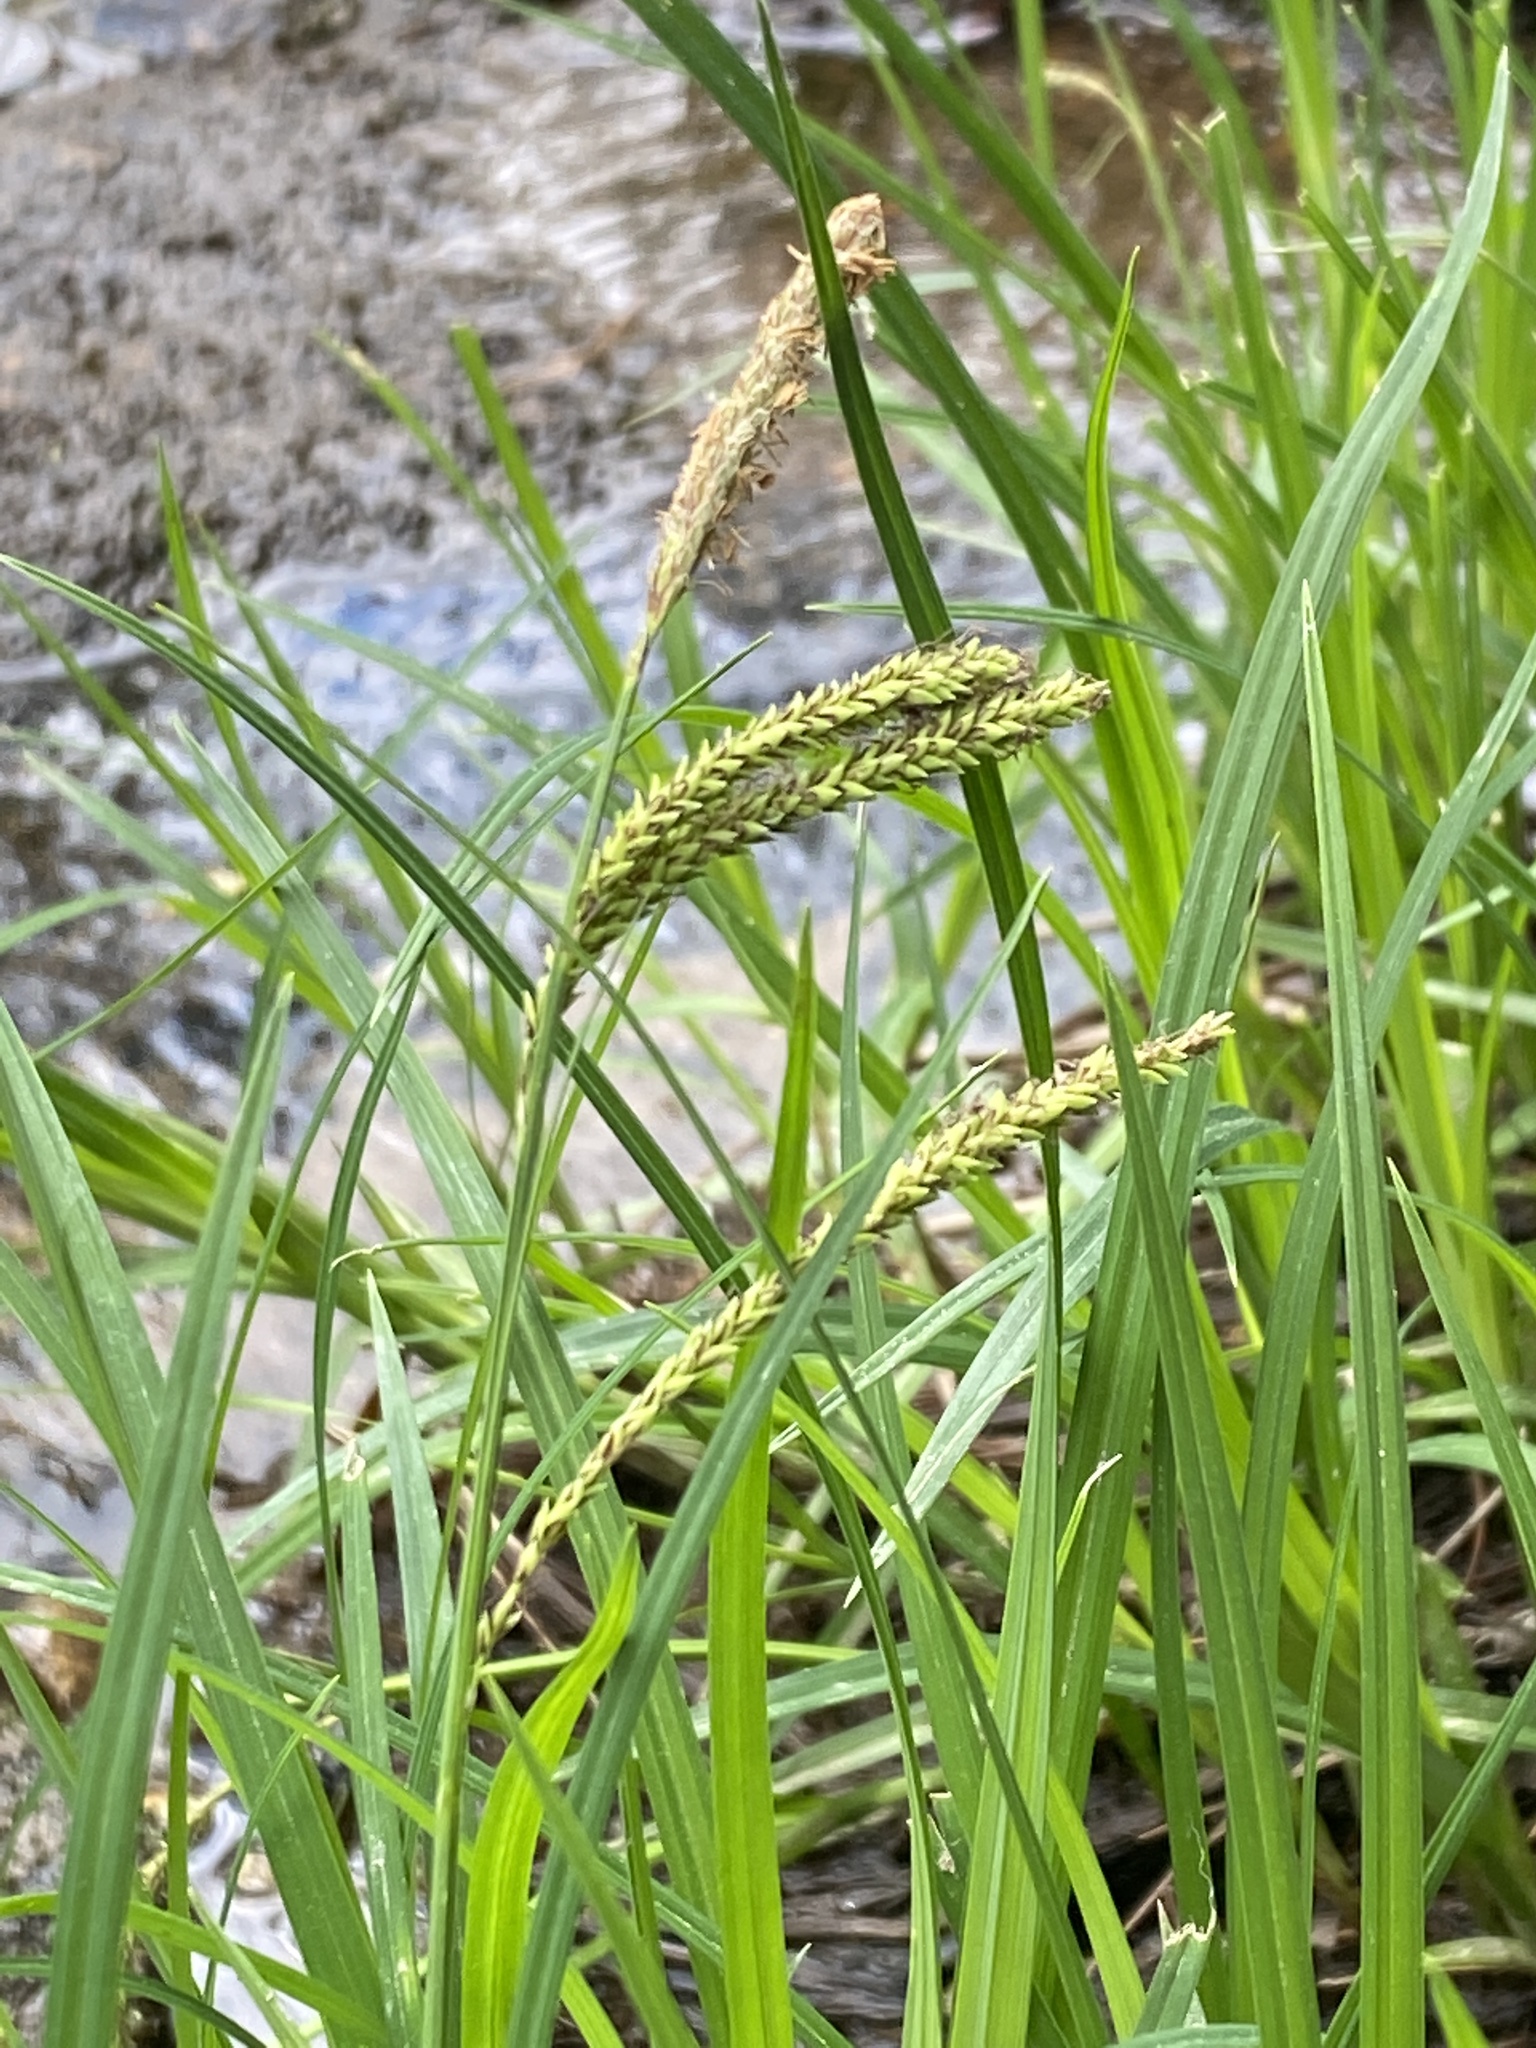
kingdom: Plantae
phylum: Tracheophyta
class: Liliopsida
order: Poales
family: Cyperaceae
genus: Carex
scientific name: Carex torta
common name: Twisted sedge
